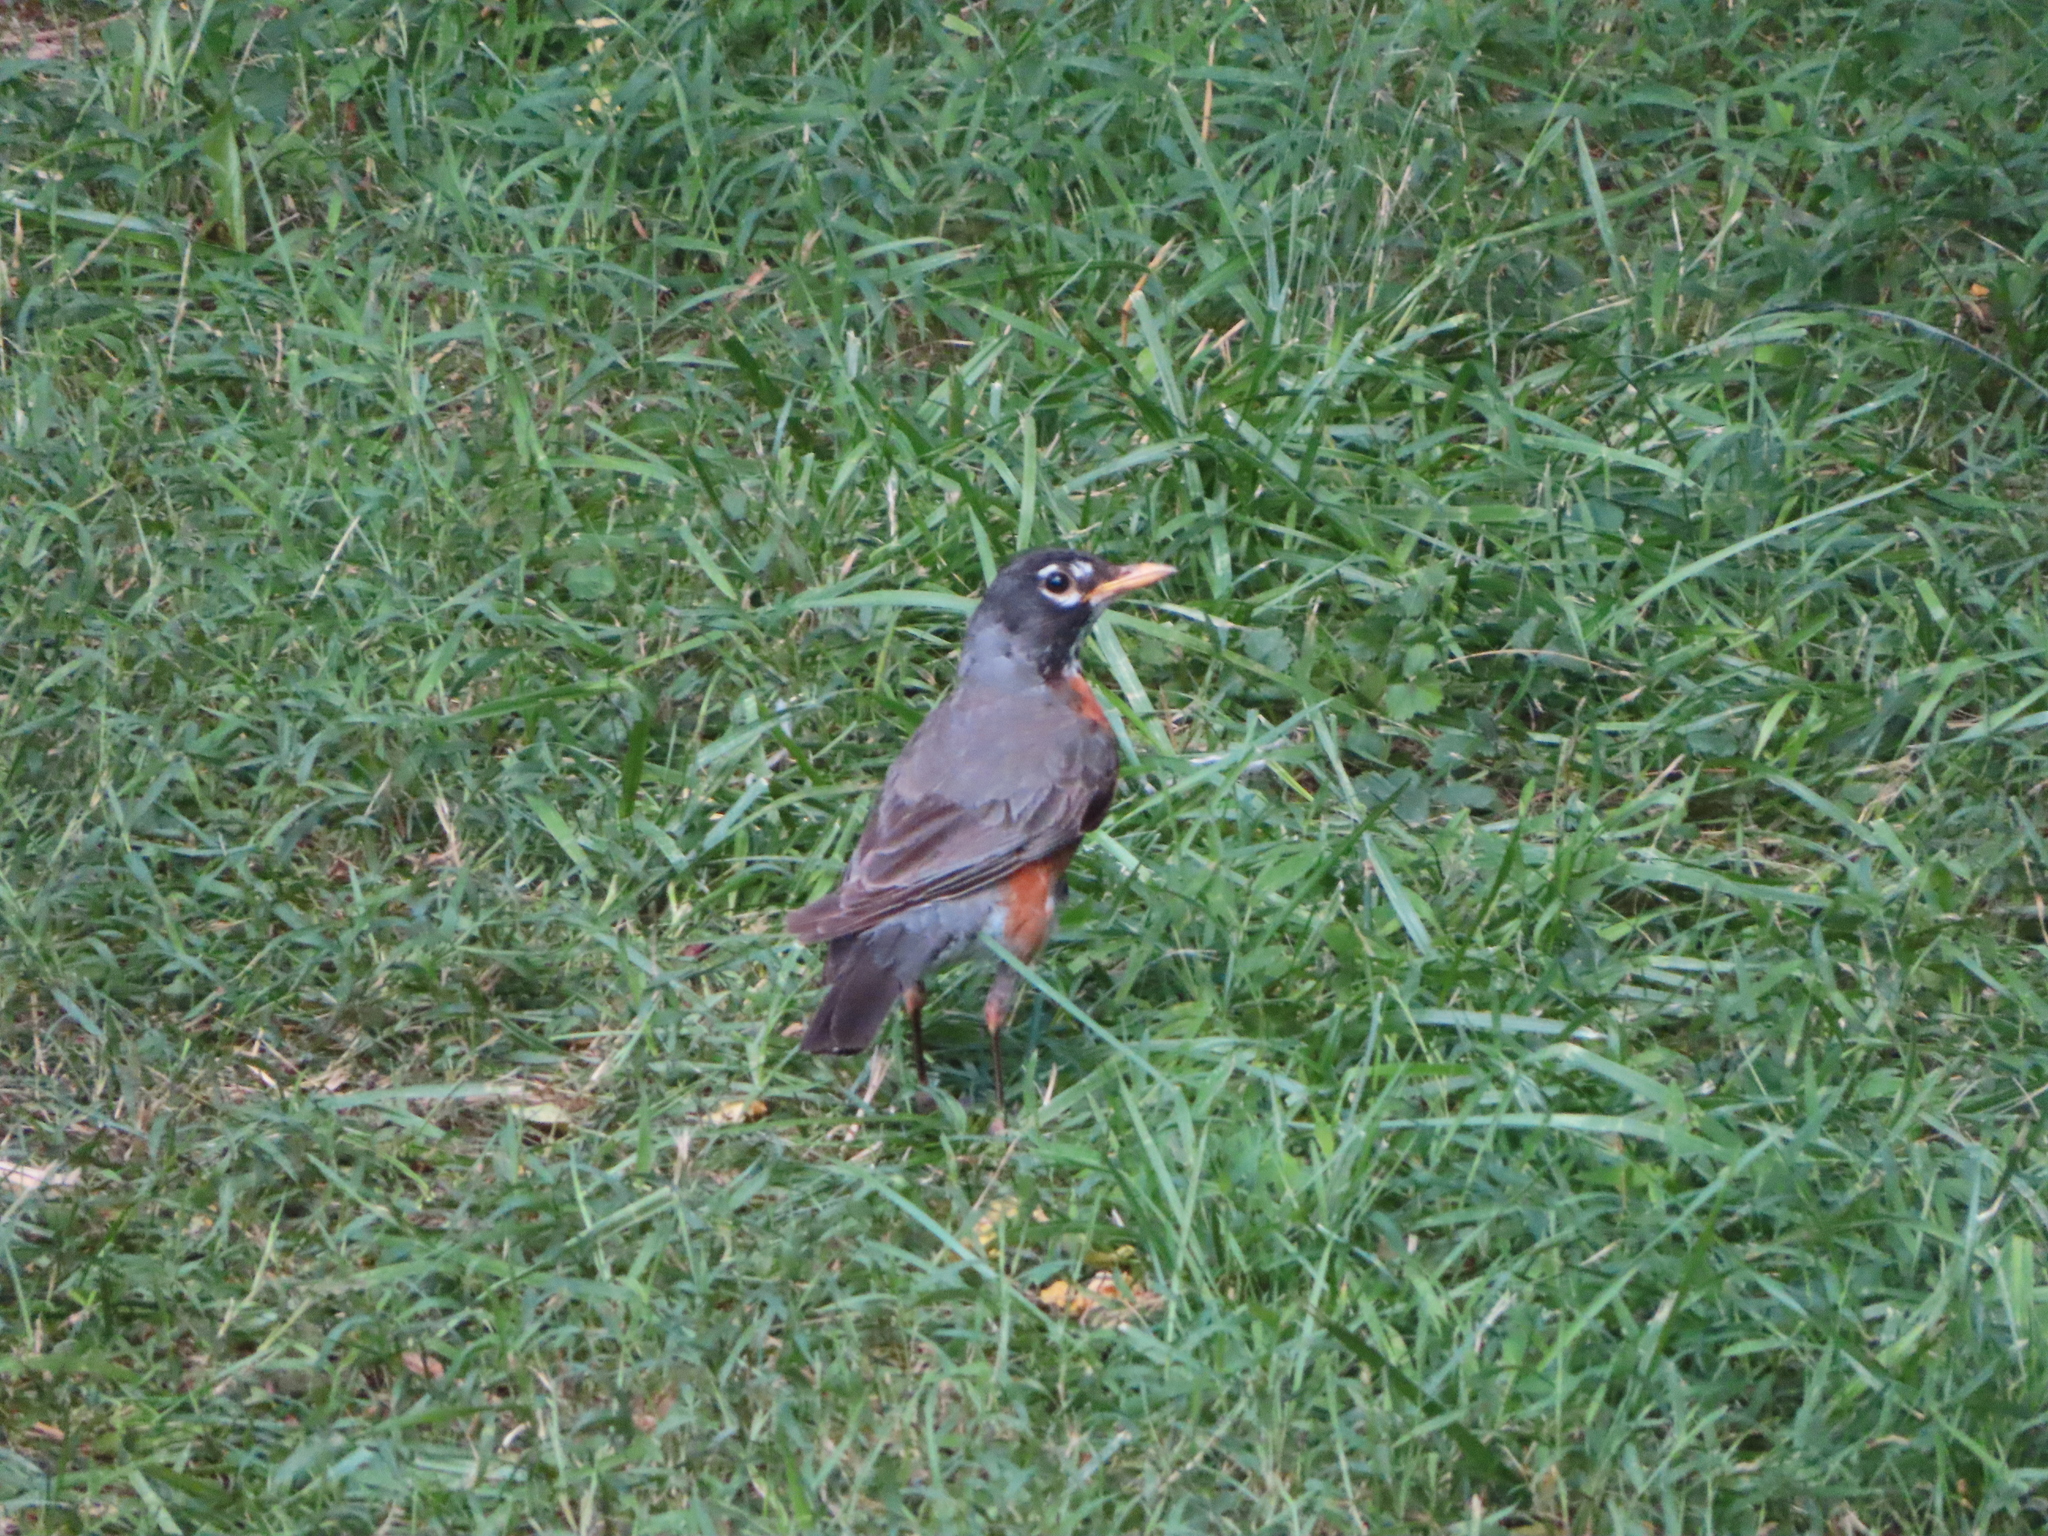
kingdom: Animalia
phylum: Chordata
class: Aves
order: Passeriformes
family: Turdidae
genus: Turdus
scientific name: Turdus migratorius
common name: American robin
